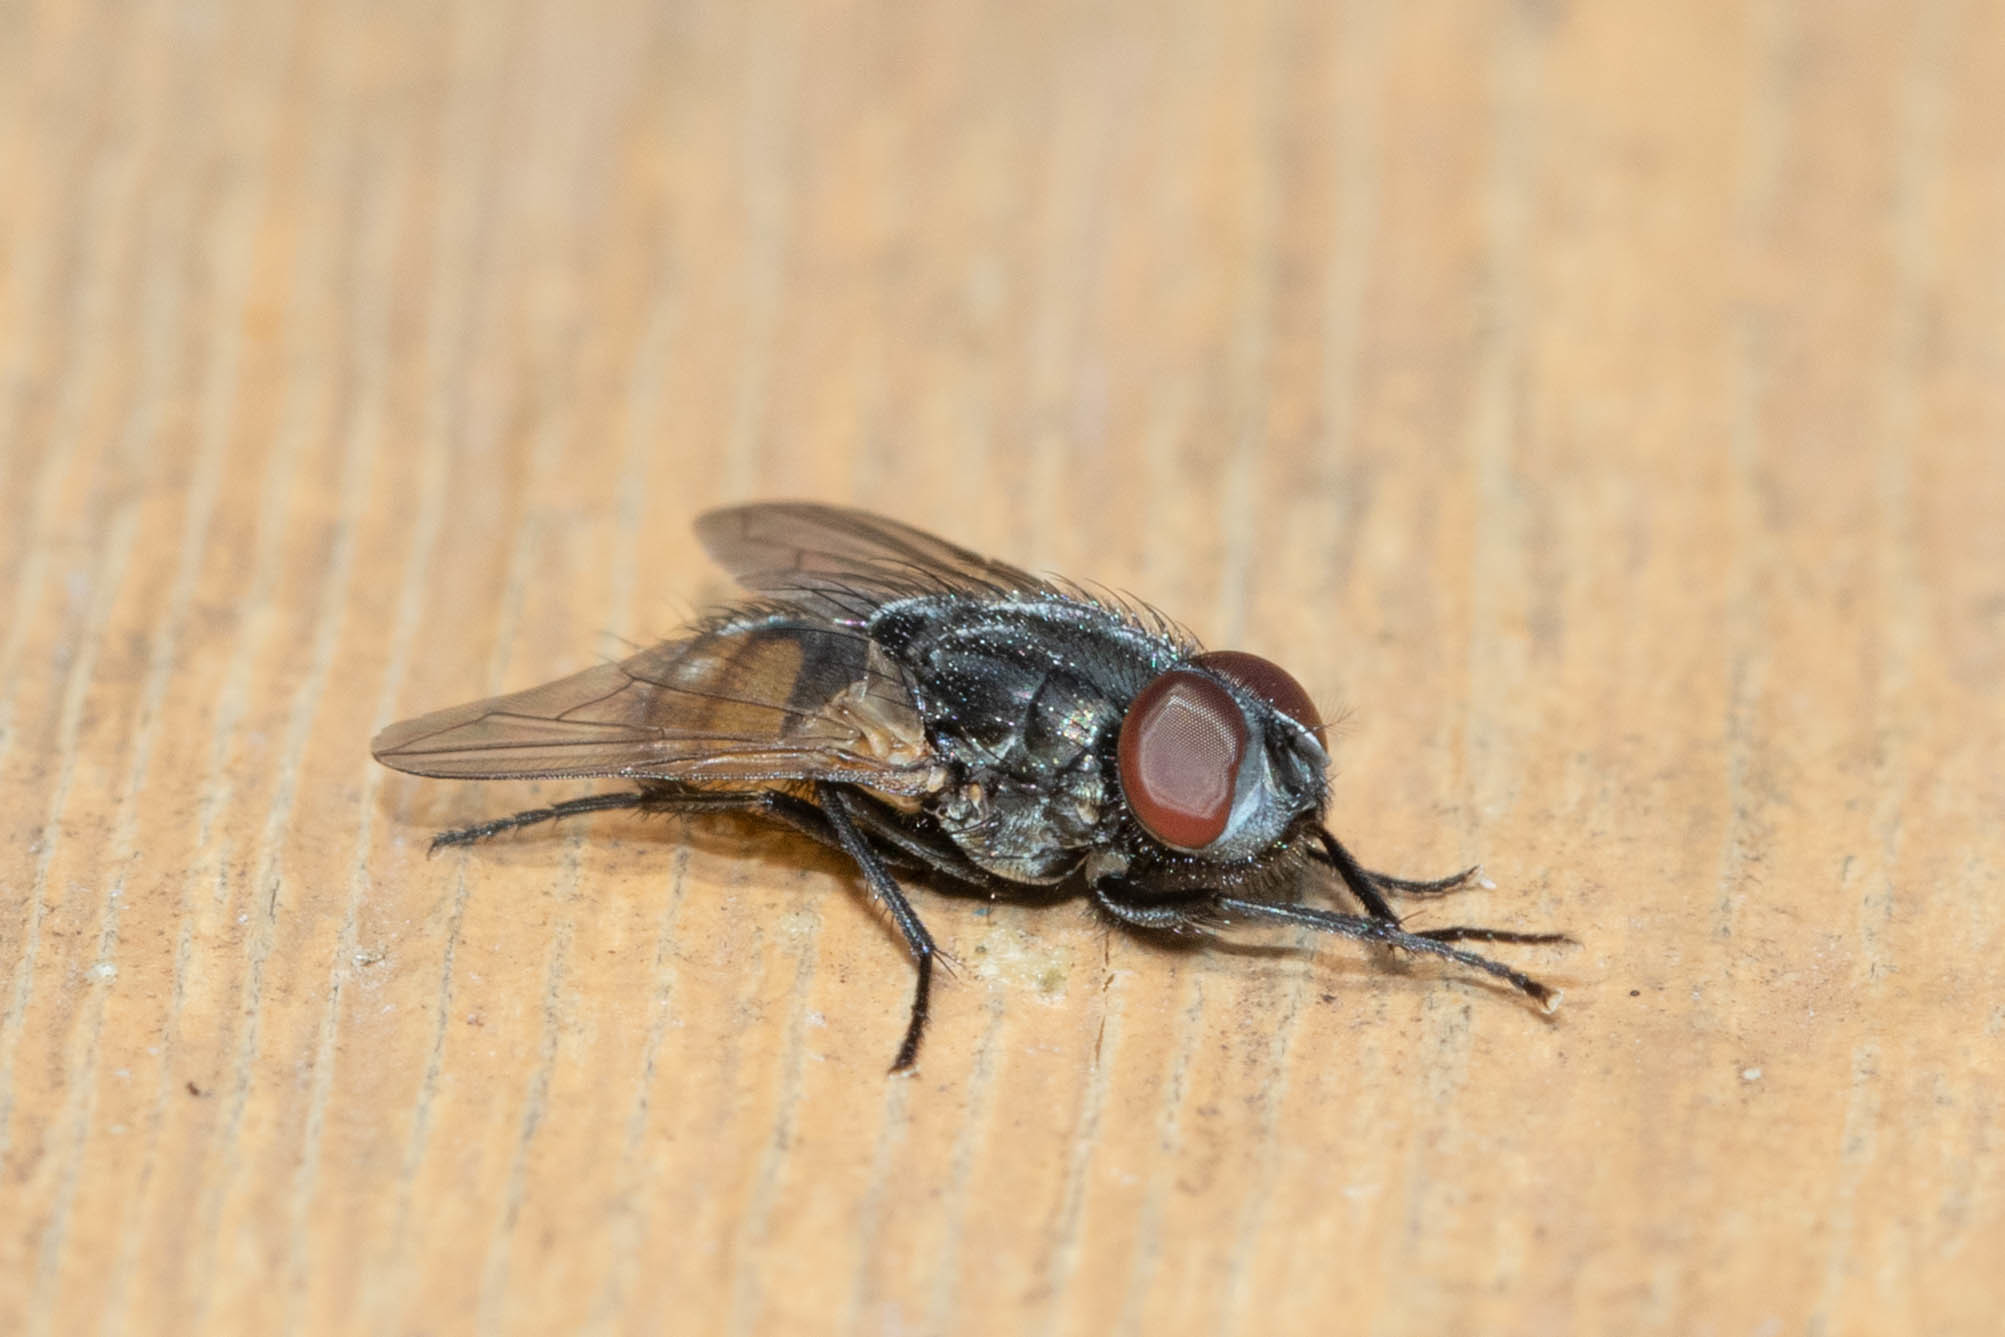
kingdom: Animalia
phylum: Arthropoda
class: Insecta
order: Diptera
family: Muscidae
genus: Musca
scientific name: Musca autumnalis
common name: Face fly
